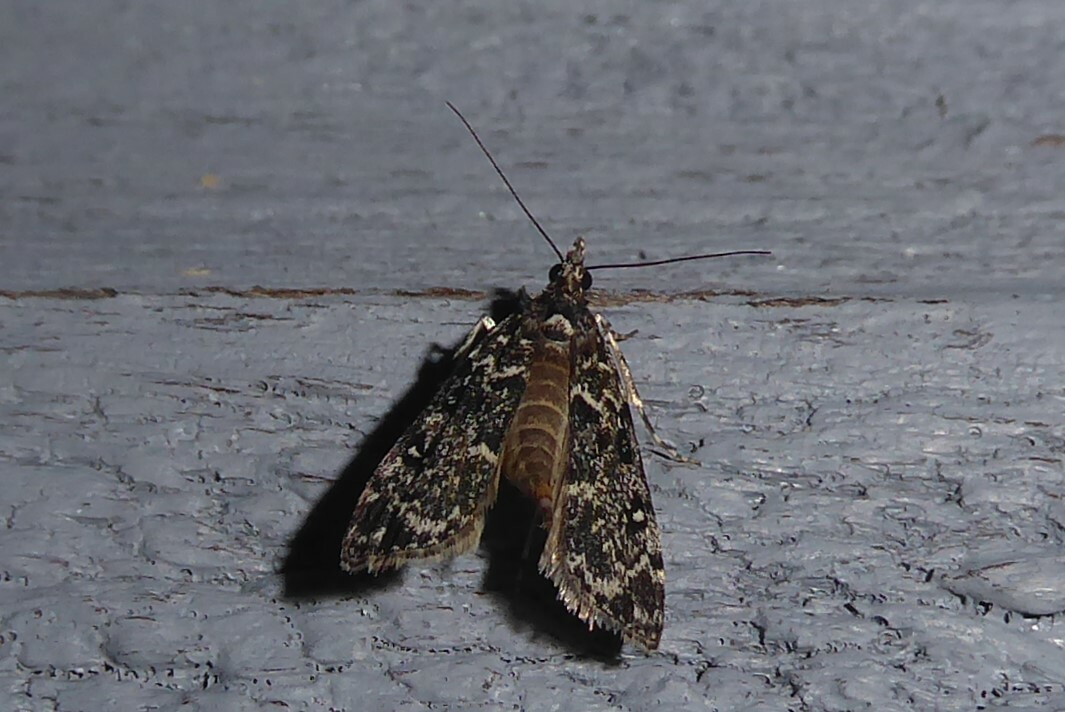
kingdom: Animalia
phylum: Arthropoda
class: Insecta
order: Lepidoptera
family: Crambidae
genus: Eudonia
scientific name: Eudonia philerga
